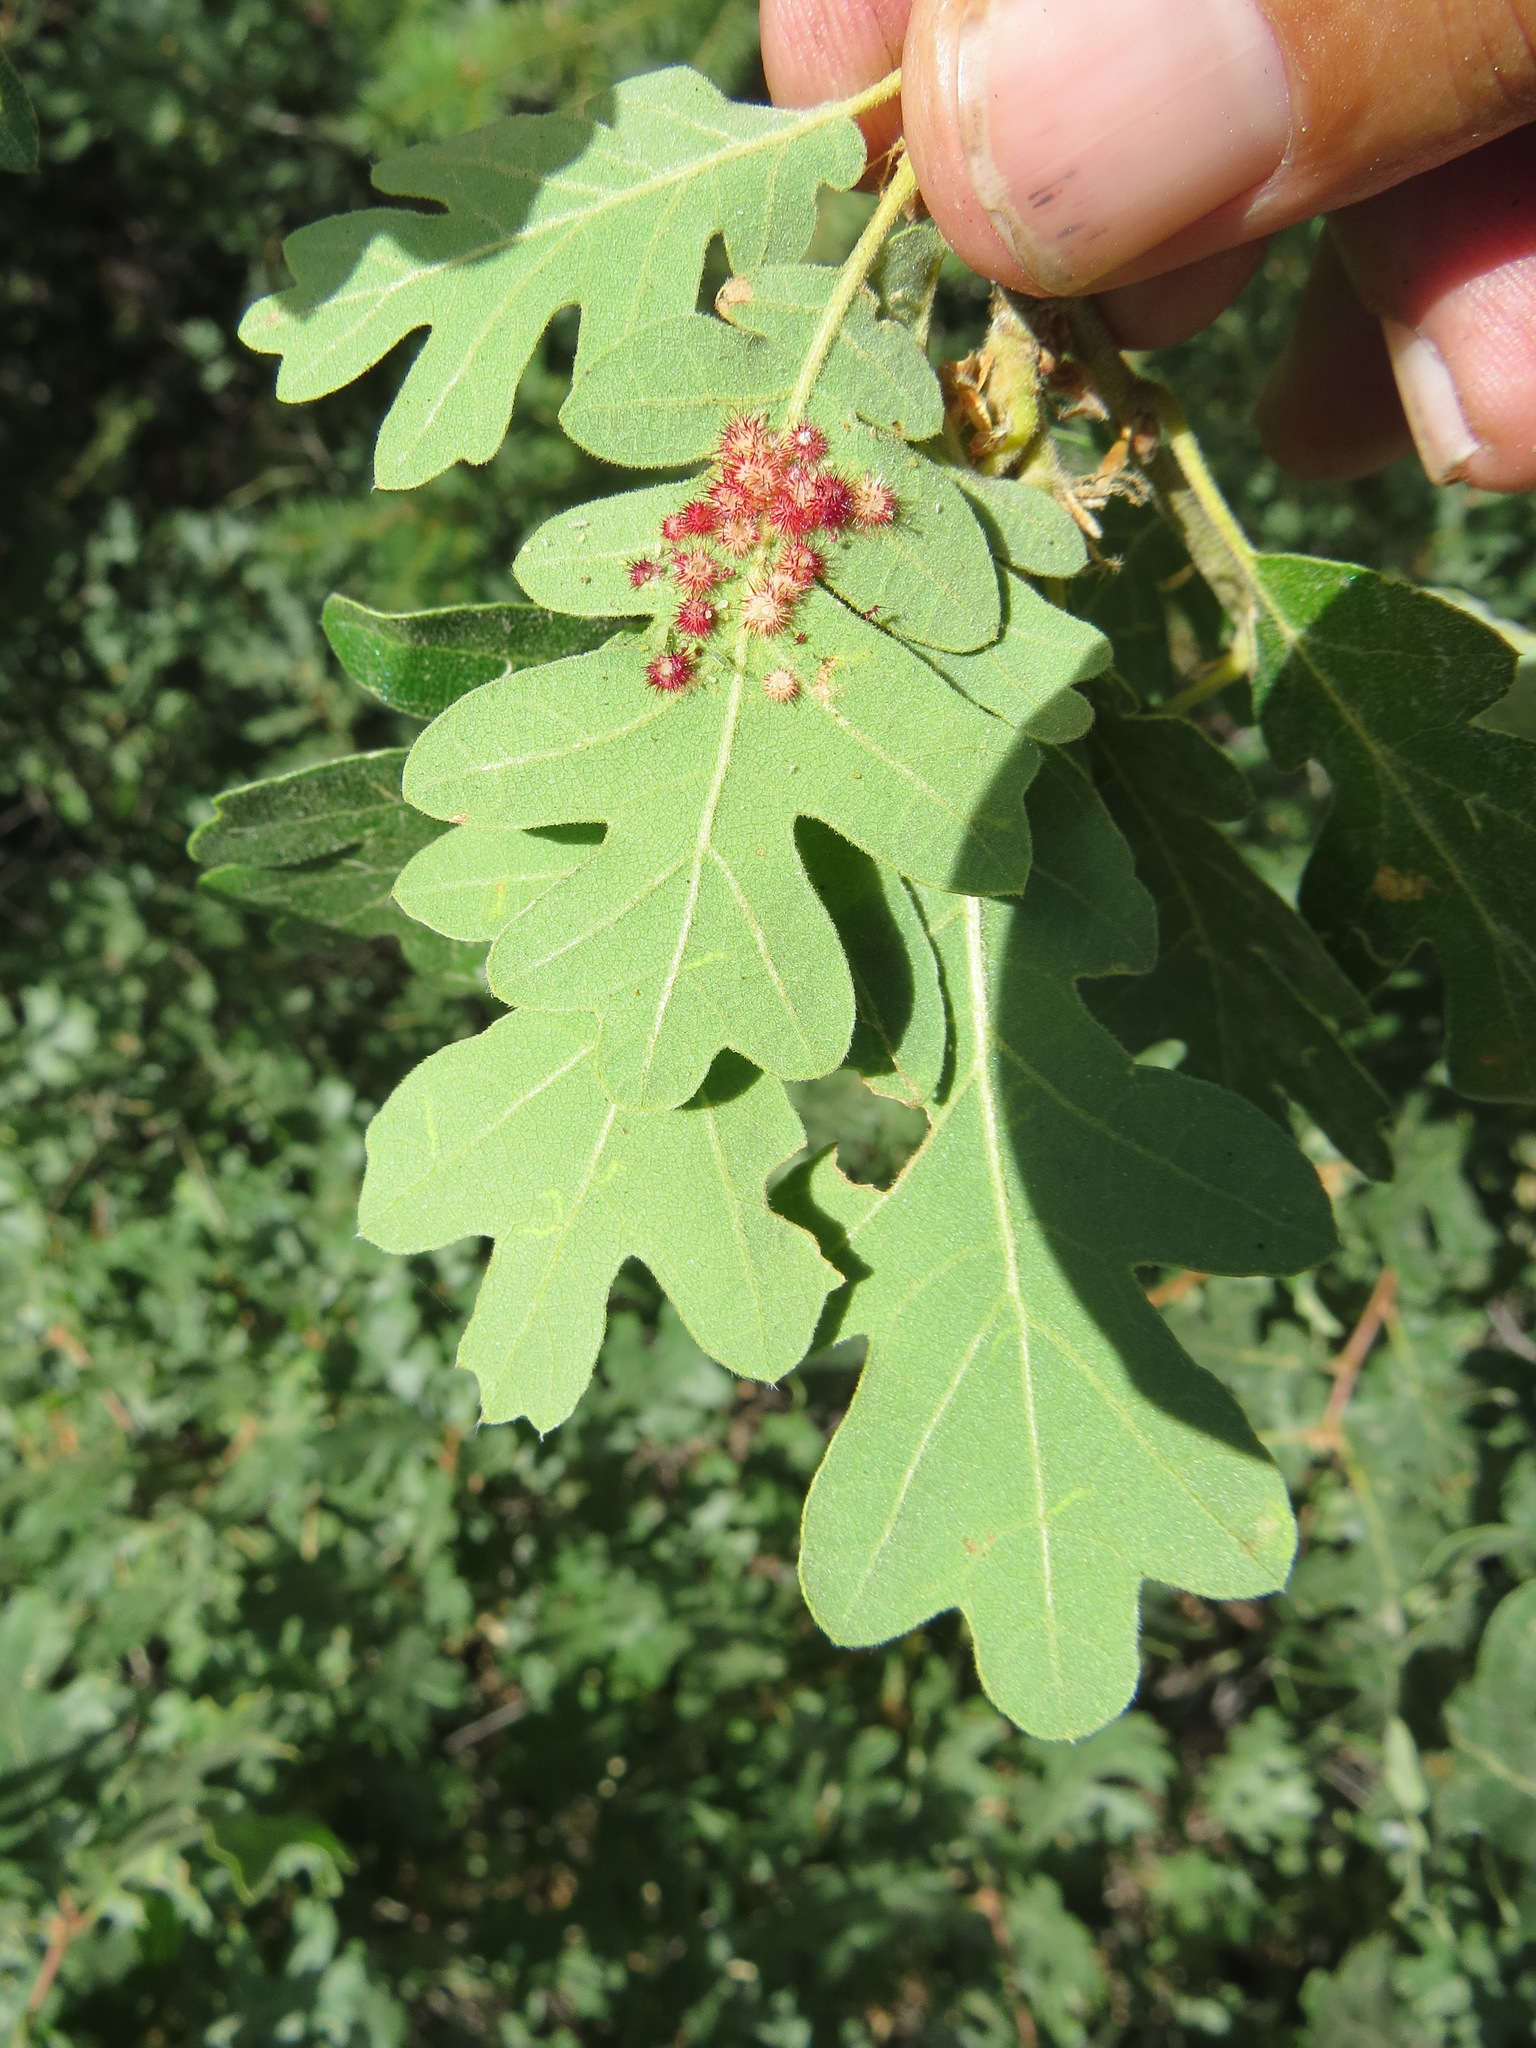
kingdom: Animalia
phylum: Arthropoda
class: Insecta
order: Hymenoptera
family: Cynipidae
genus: Andricus
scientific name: Andricus
